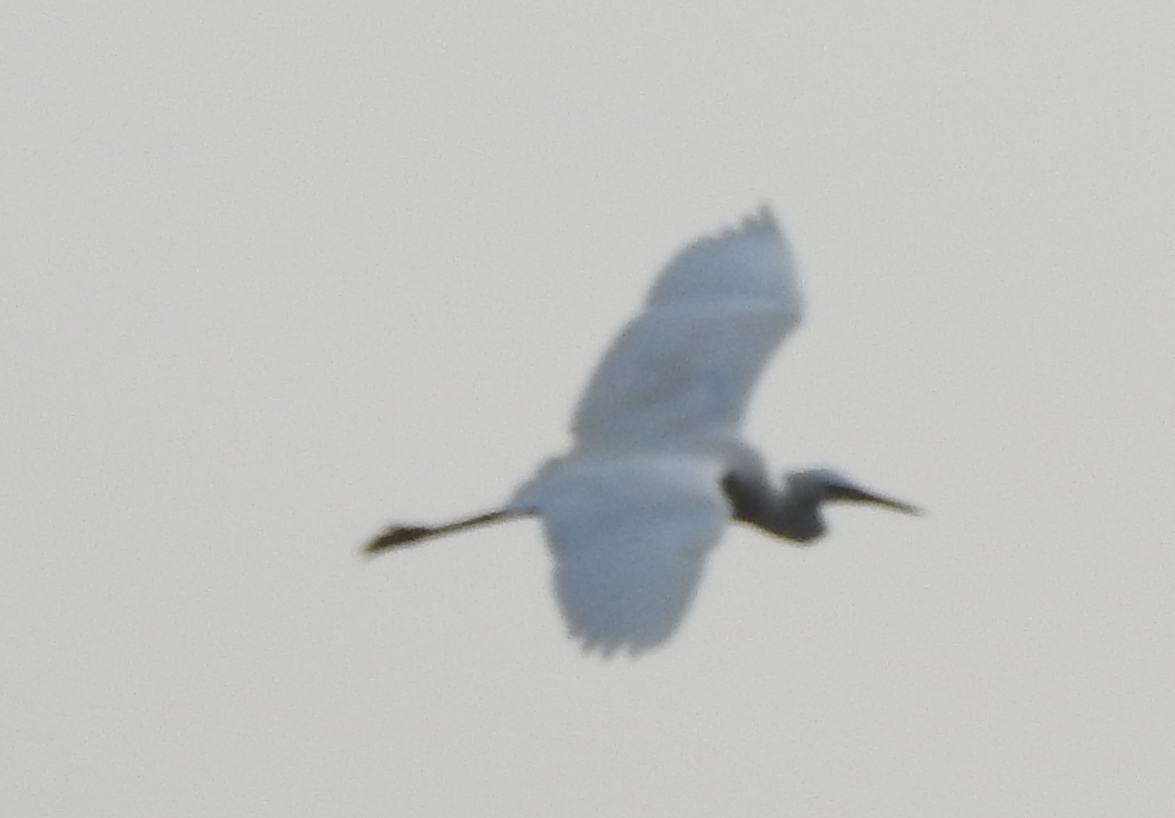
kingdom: Animalia
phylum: Chordata
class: Aves
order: Pelecaniformes
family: Ardeidae
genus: Egretta
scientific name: Egretta garzetta
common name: Little egret
